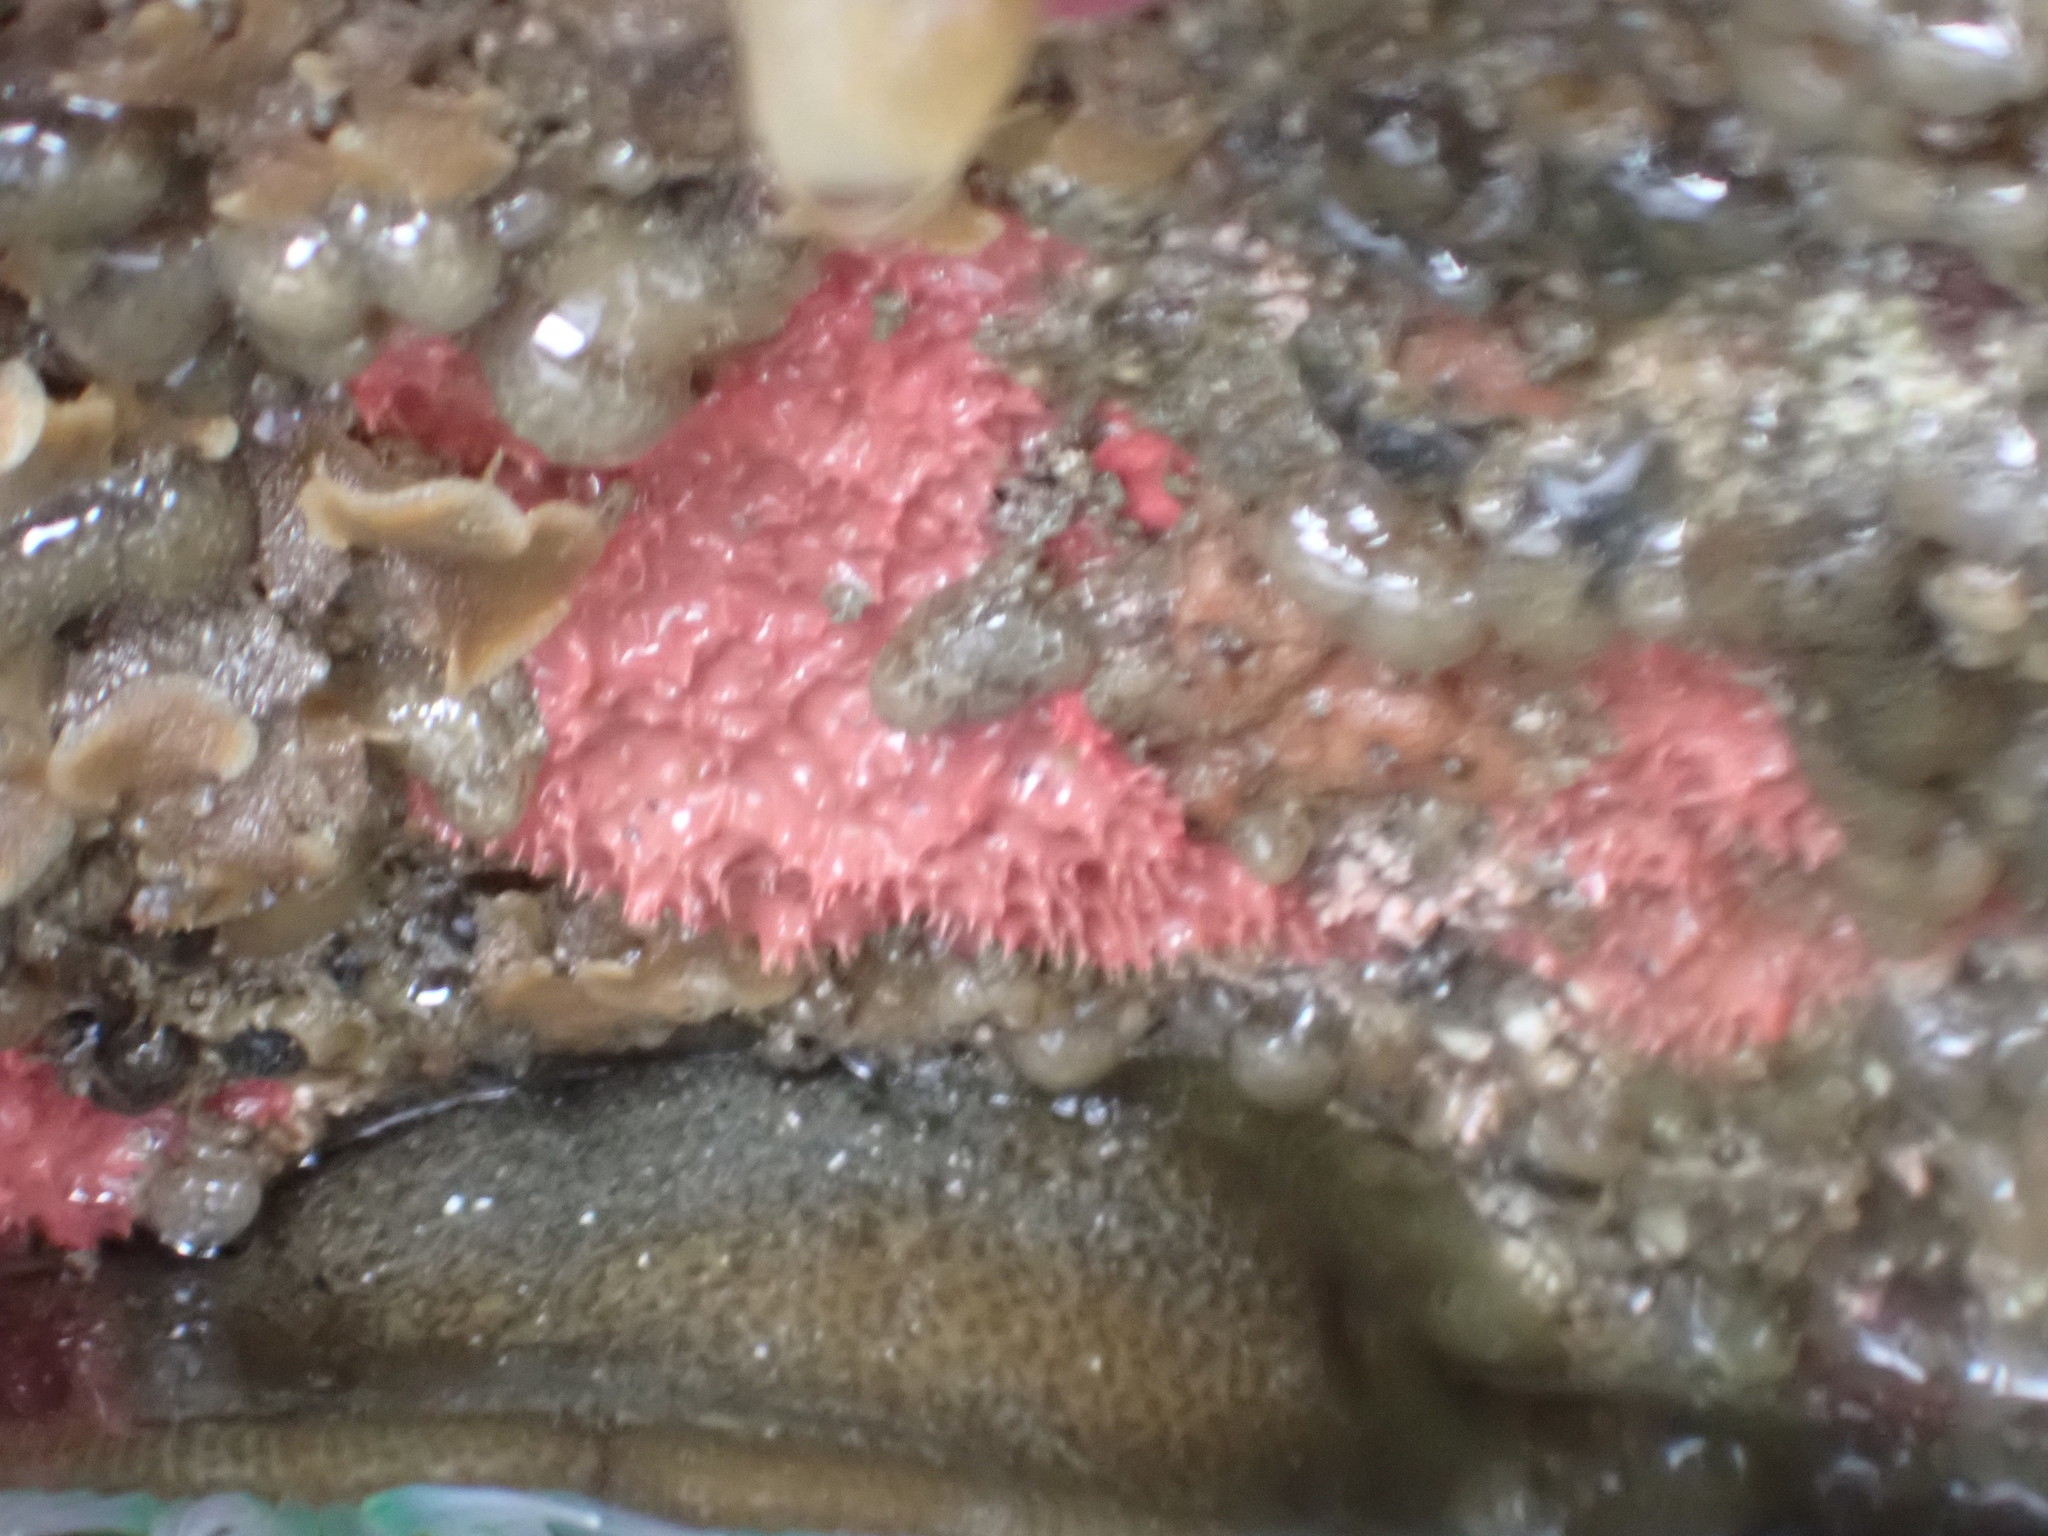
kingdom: Animalia
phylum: Porifera
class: Demospongiae
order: Dendroceratida
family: Darwinellidae
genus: Aplysilla
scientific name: Aplysilla glacialis
